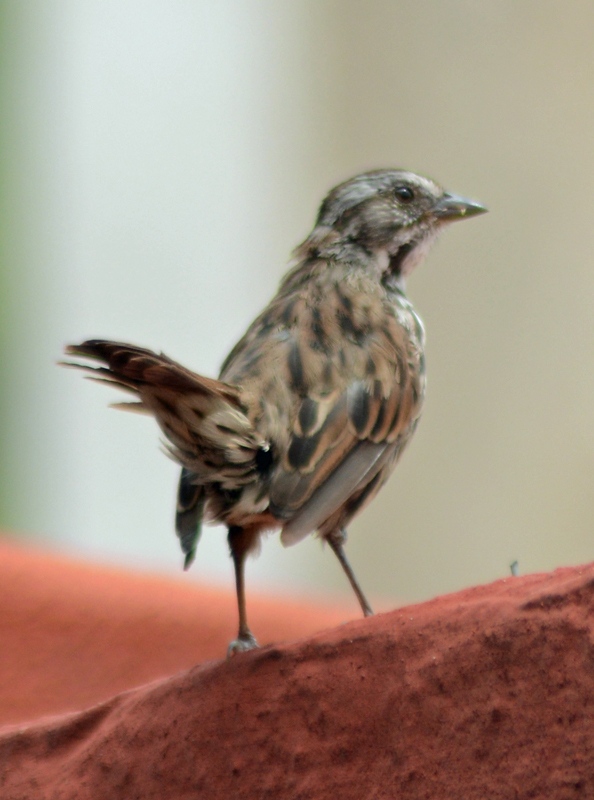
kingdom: Animalia
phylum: Chordata
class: Aves
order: Passeriformes
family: Passerellidae
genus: Melospiza
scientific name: Melospiza melodia
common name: Song sparrow
